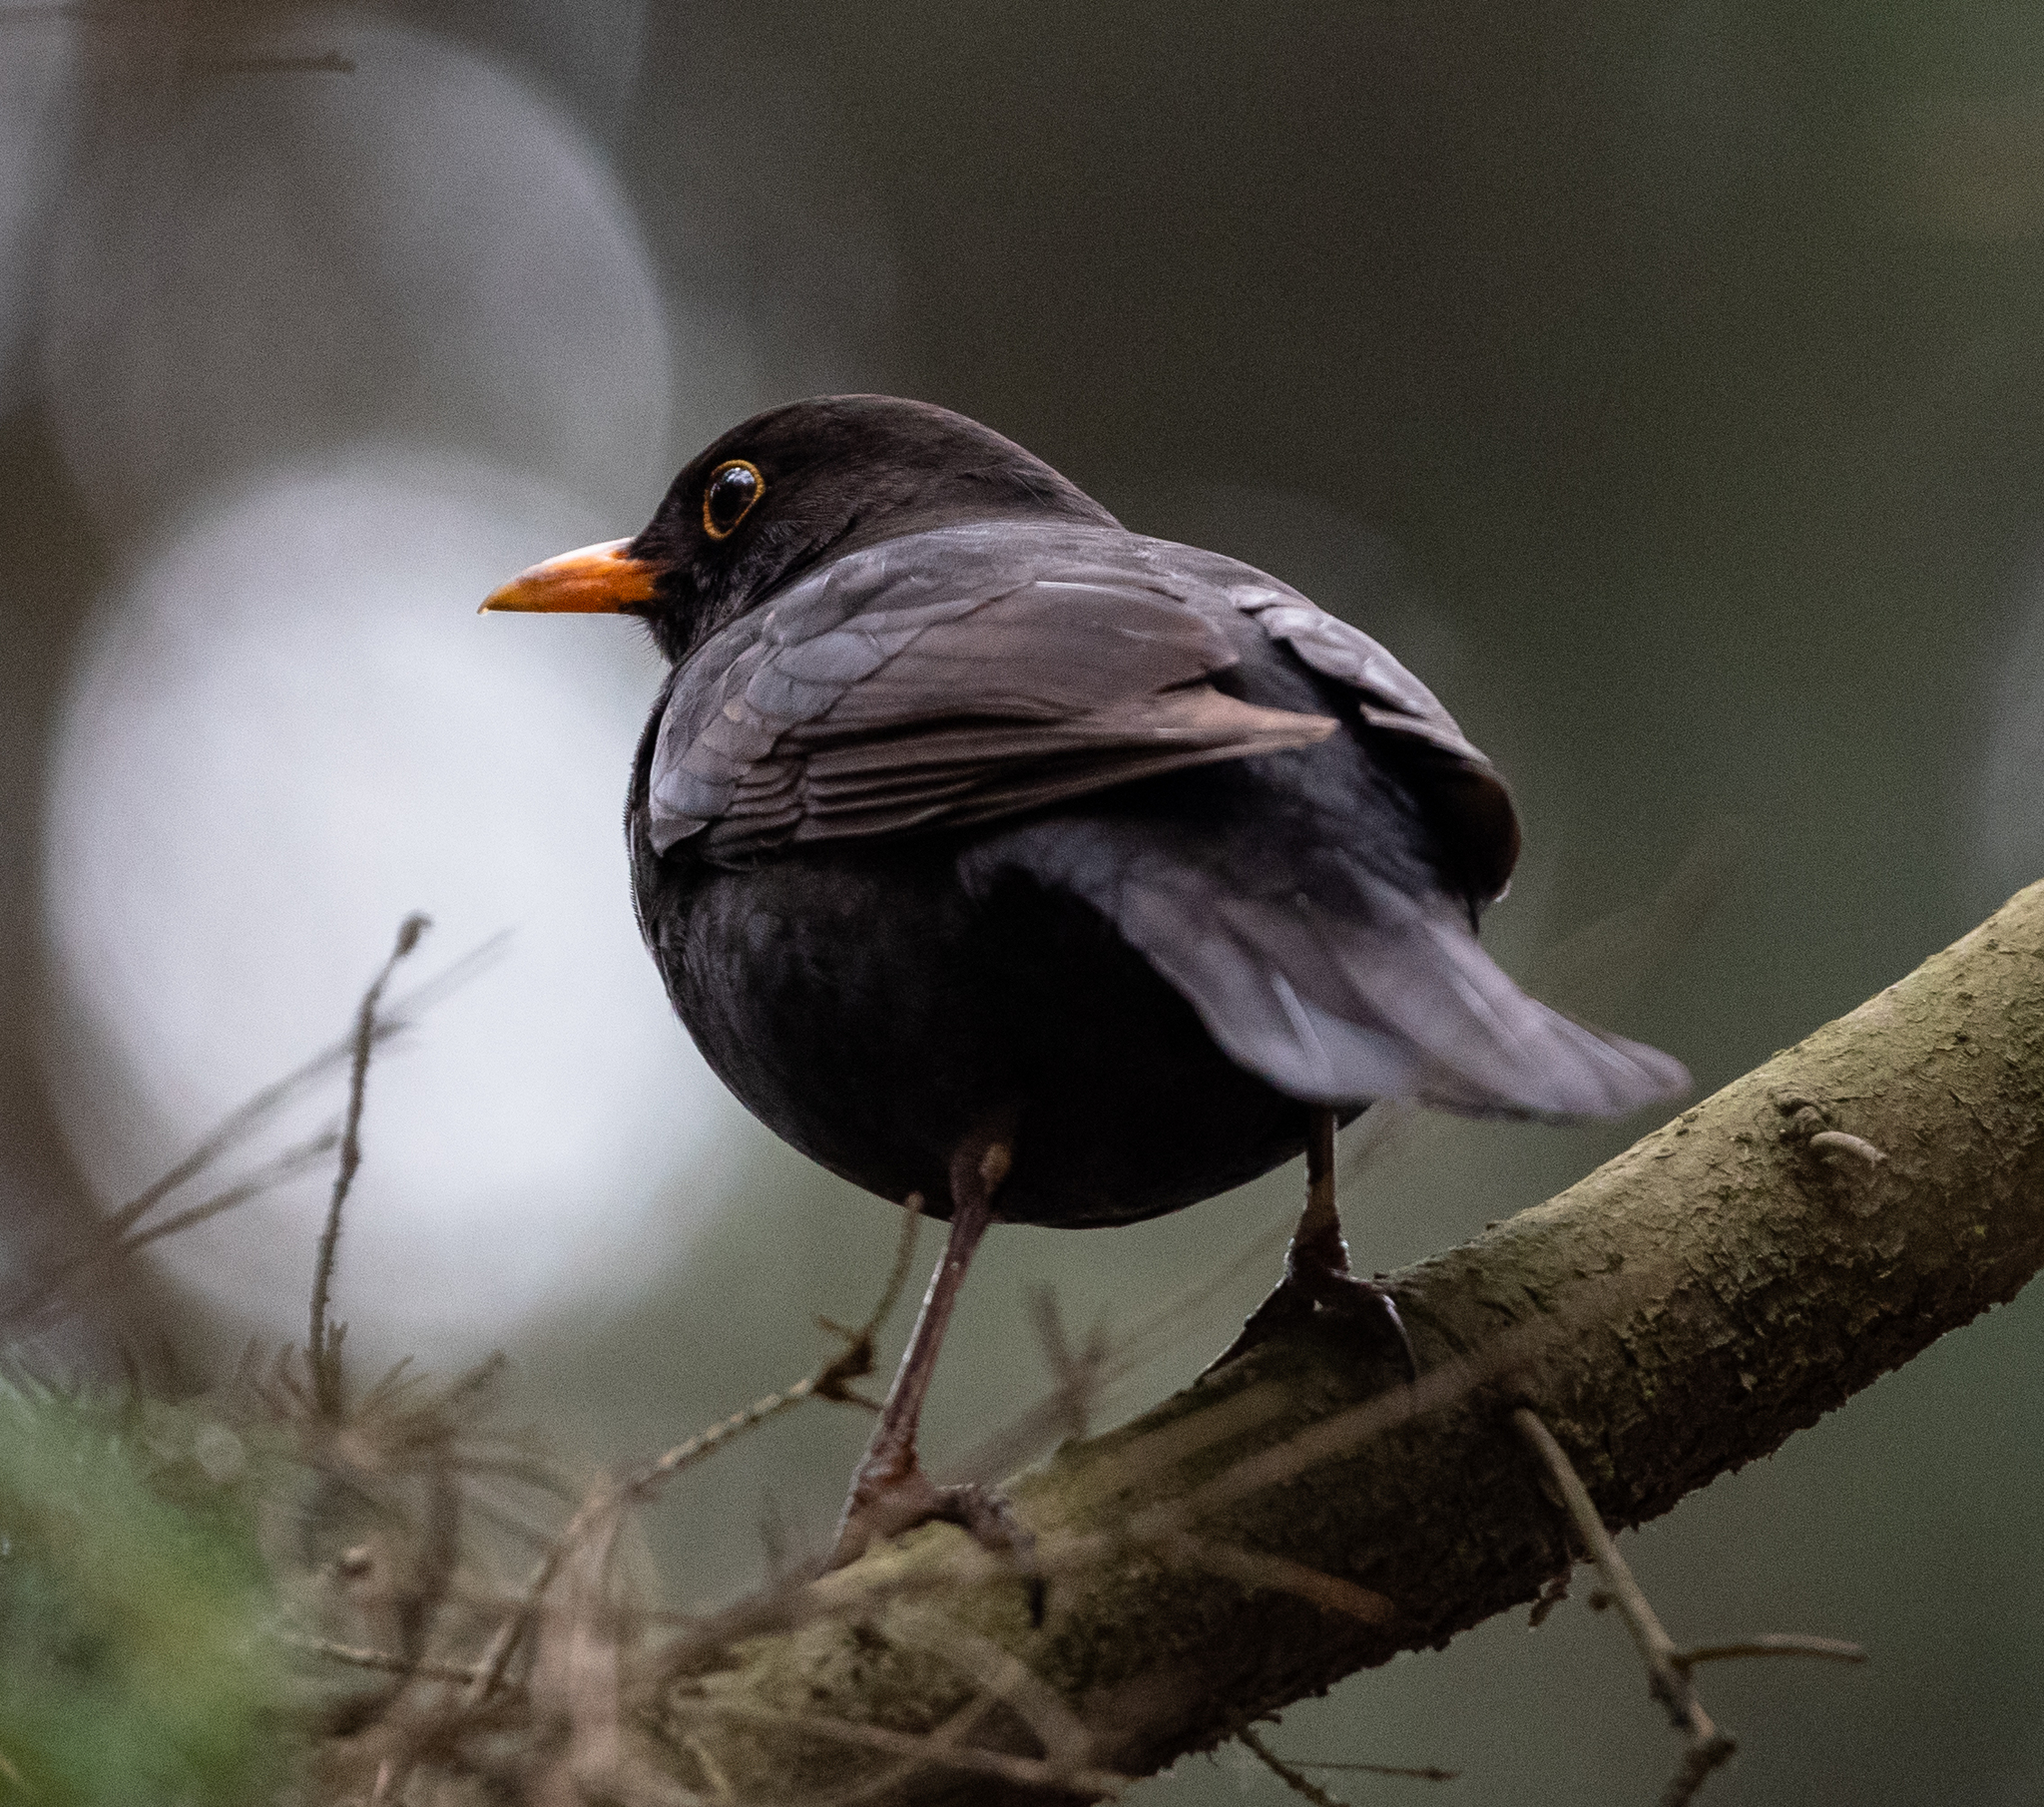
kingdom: Animalia
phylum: Chordata
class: Aves
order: Passeriformes
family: Turdidae
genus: Turdus
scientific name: Turdus merula
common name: Common blackbird
